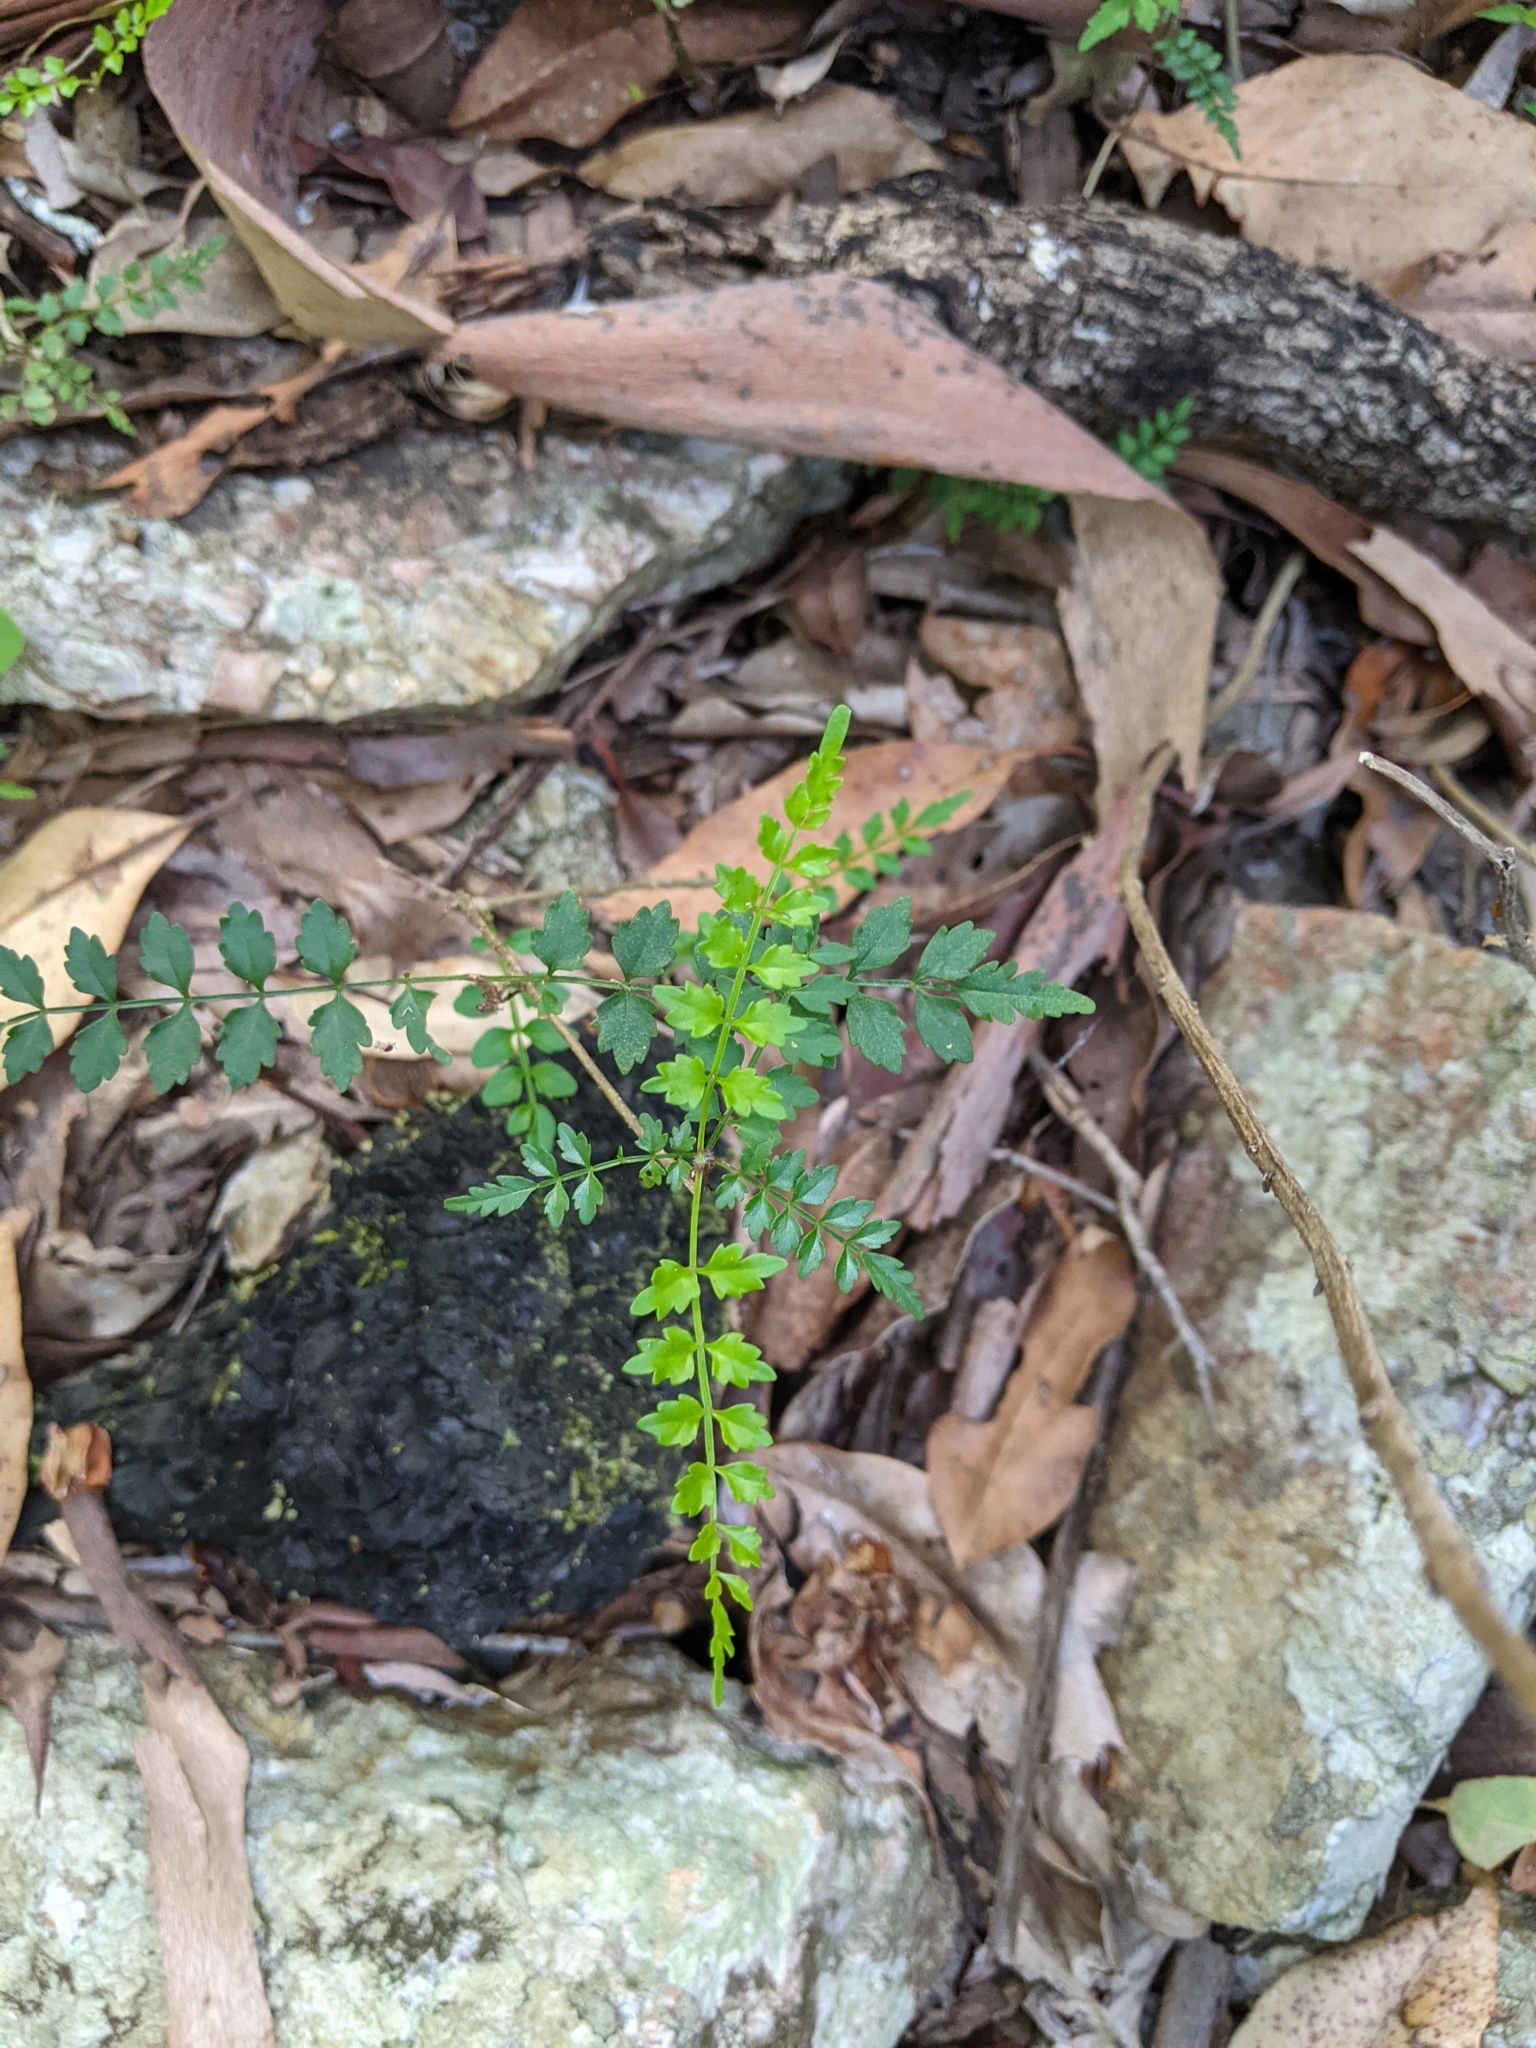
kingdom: Plantae
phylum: Tracheophyta
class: Magnoliopsida
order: Lamiales
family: Bignoniaceae
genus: Pandorea
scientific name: Pandorea pandorana
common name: Wonga-wonga-vine
